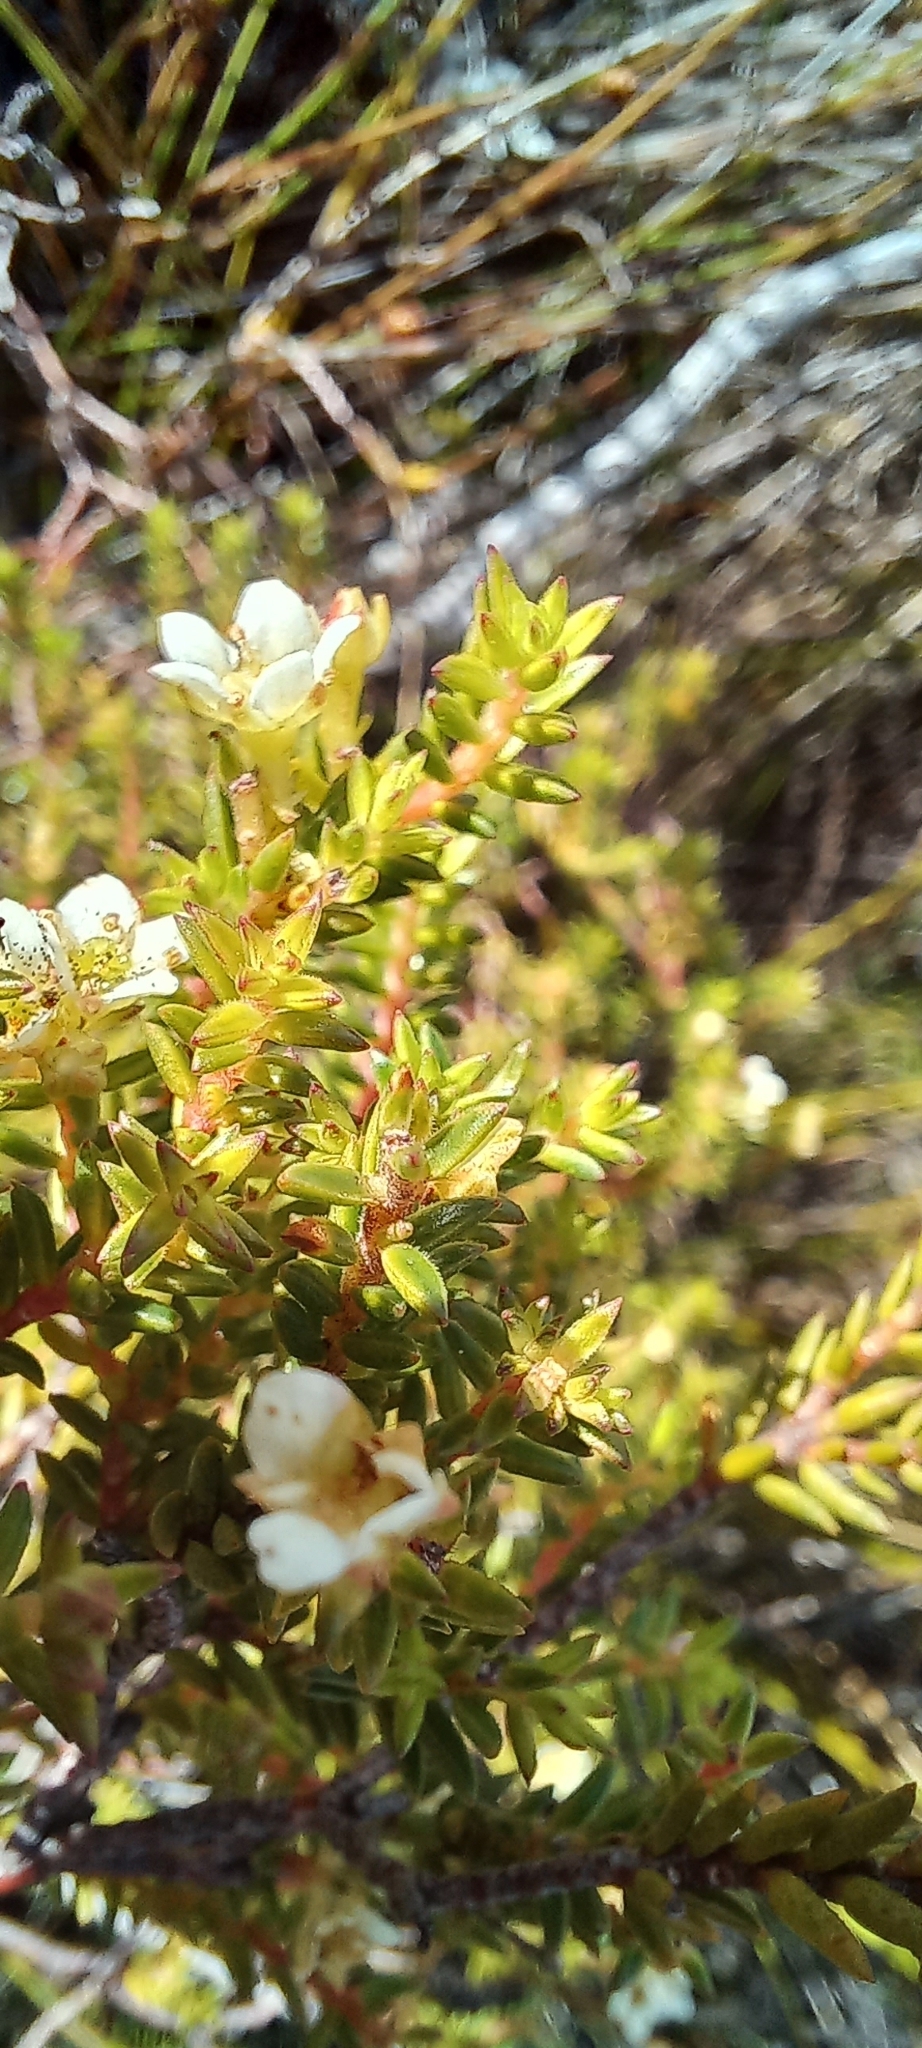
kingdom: Plantae
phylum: Tracheophyta
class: Magnoliopsida
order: Sapindales
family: Rutaceae
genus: Diosma
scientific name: Diosma oppositifolia
